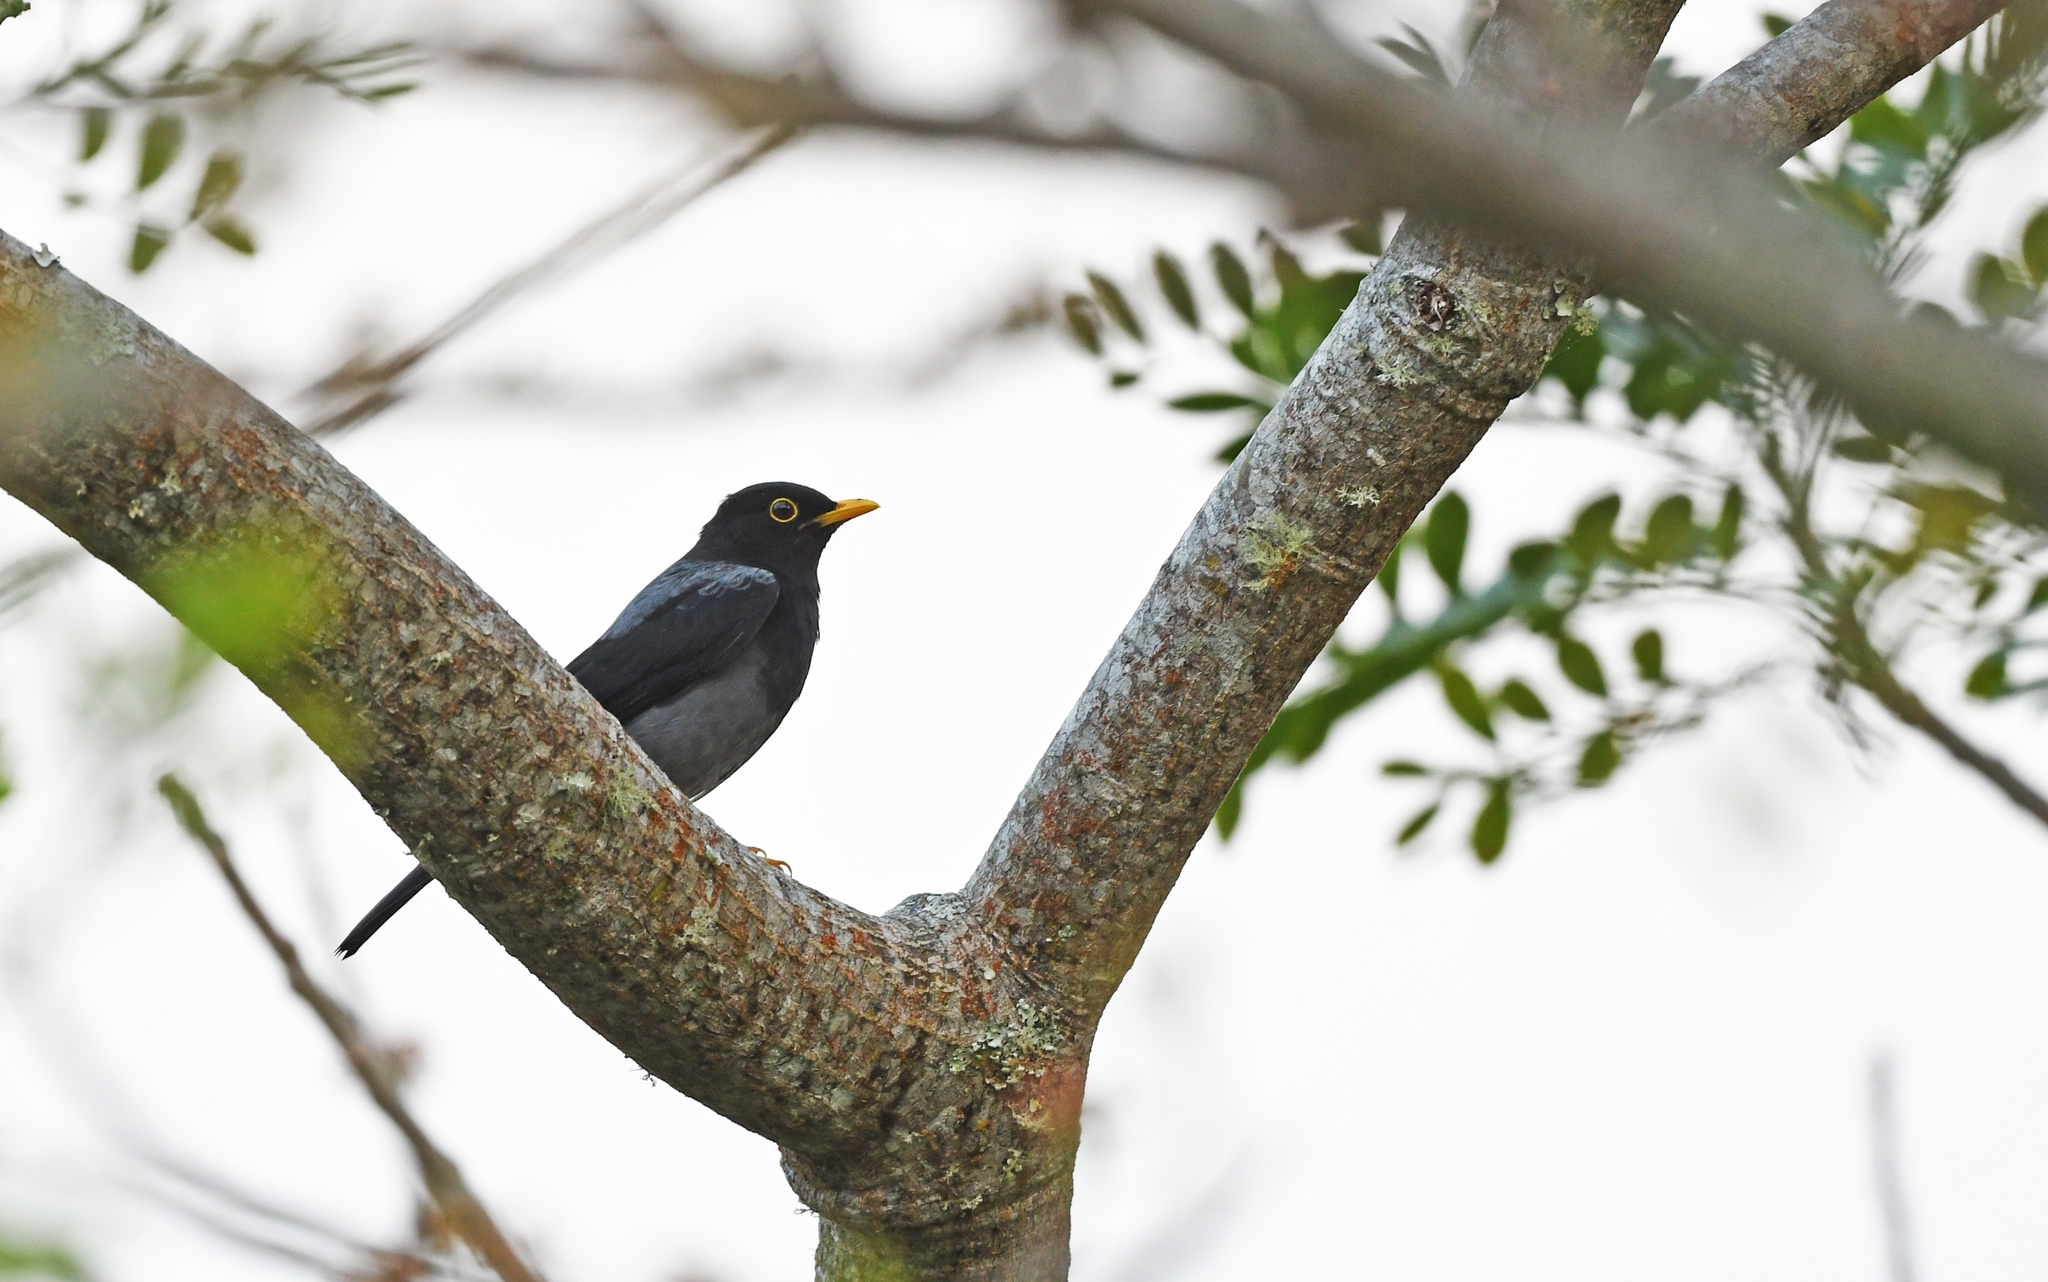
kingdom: Animalia
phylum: Chordata
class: Aves
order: Passeriformes
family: Turdidae
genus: Turdus
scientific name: Turdus flavipes
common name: Yellow-legged thrush
